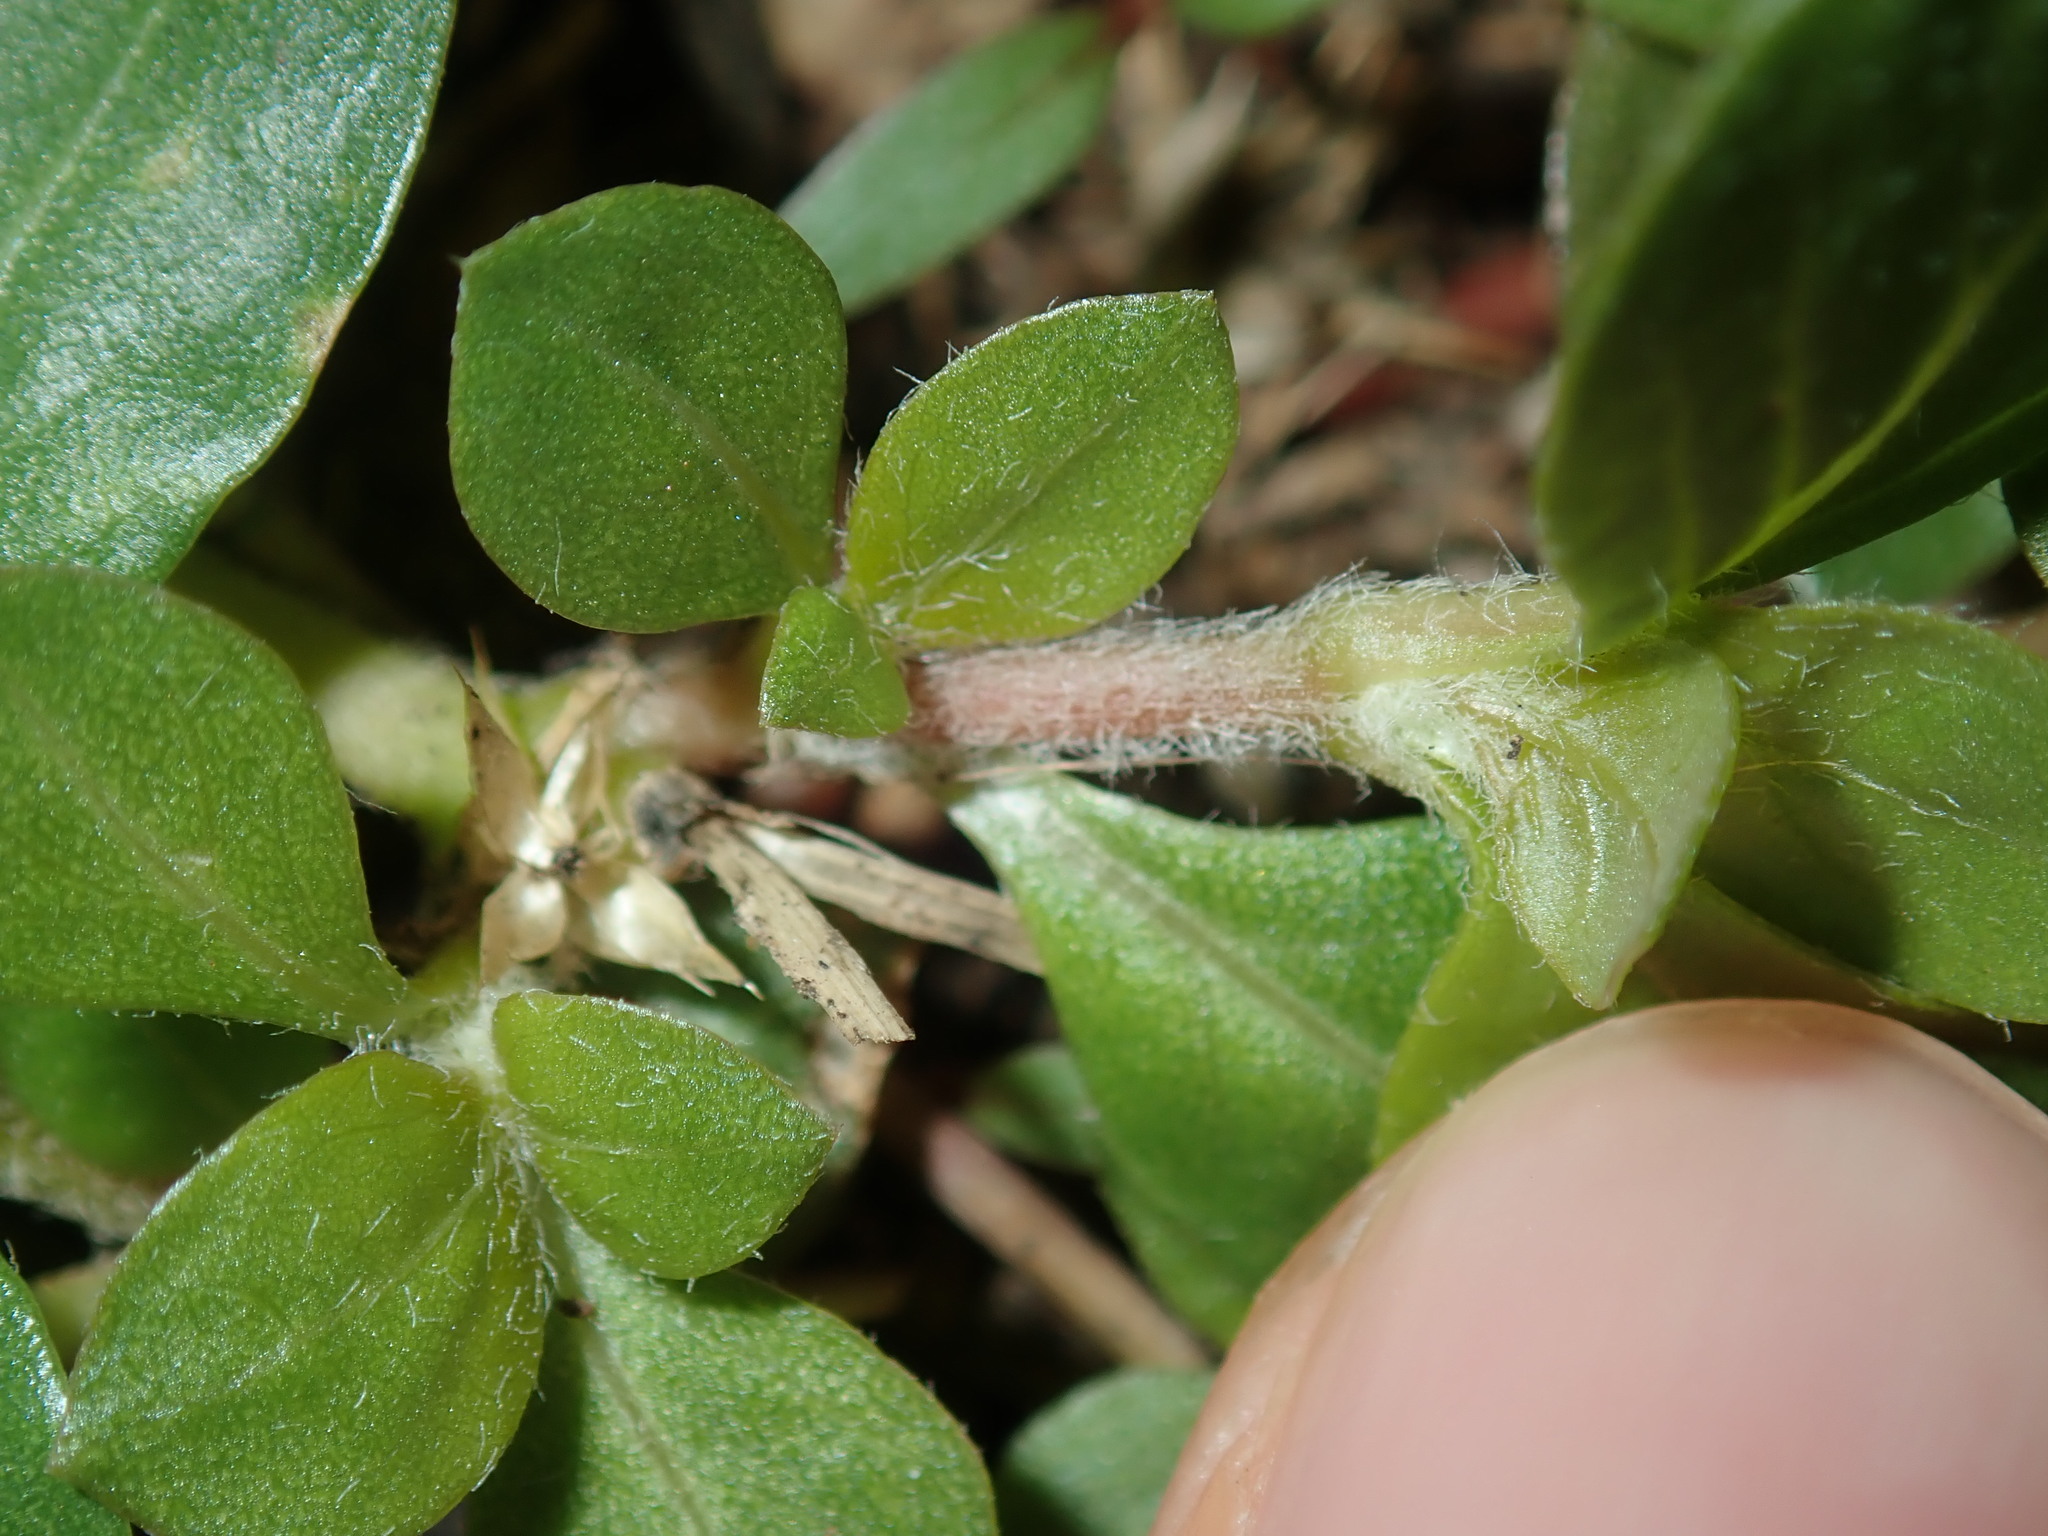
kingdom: Plantae
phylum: Tracheophyta
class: Magnoliopsida
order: Caryophyllales
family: Amaranthaceae
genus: Alternanthera
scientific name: Alternanthera pungens
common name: Khakiweed
